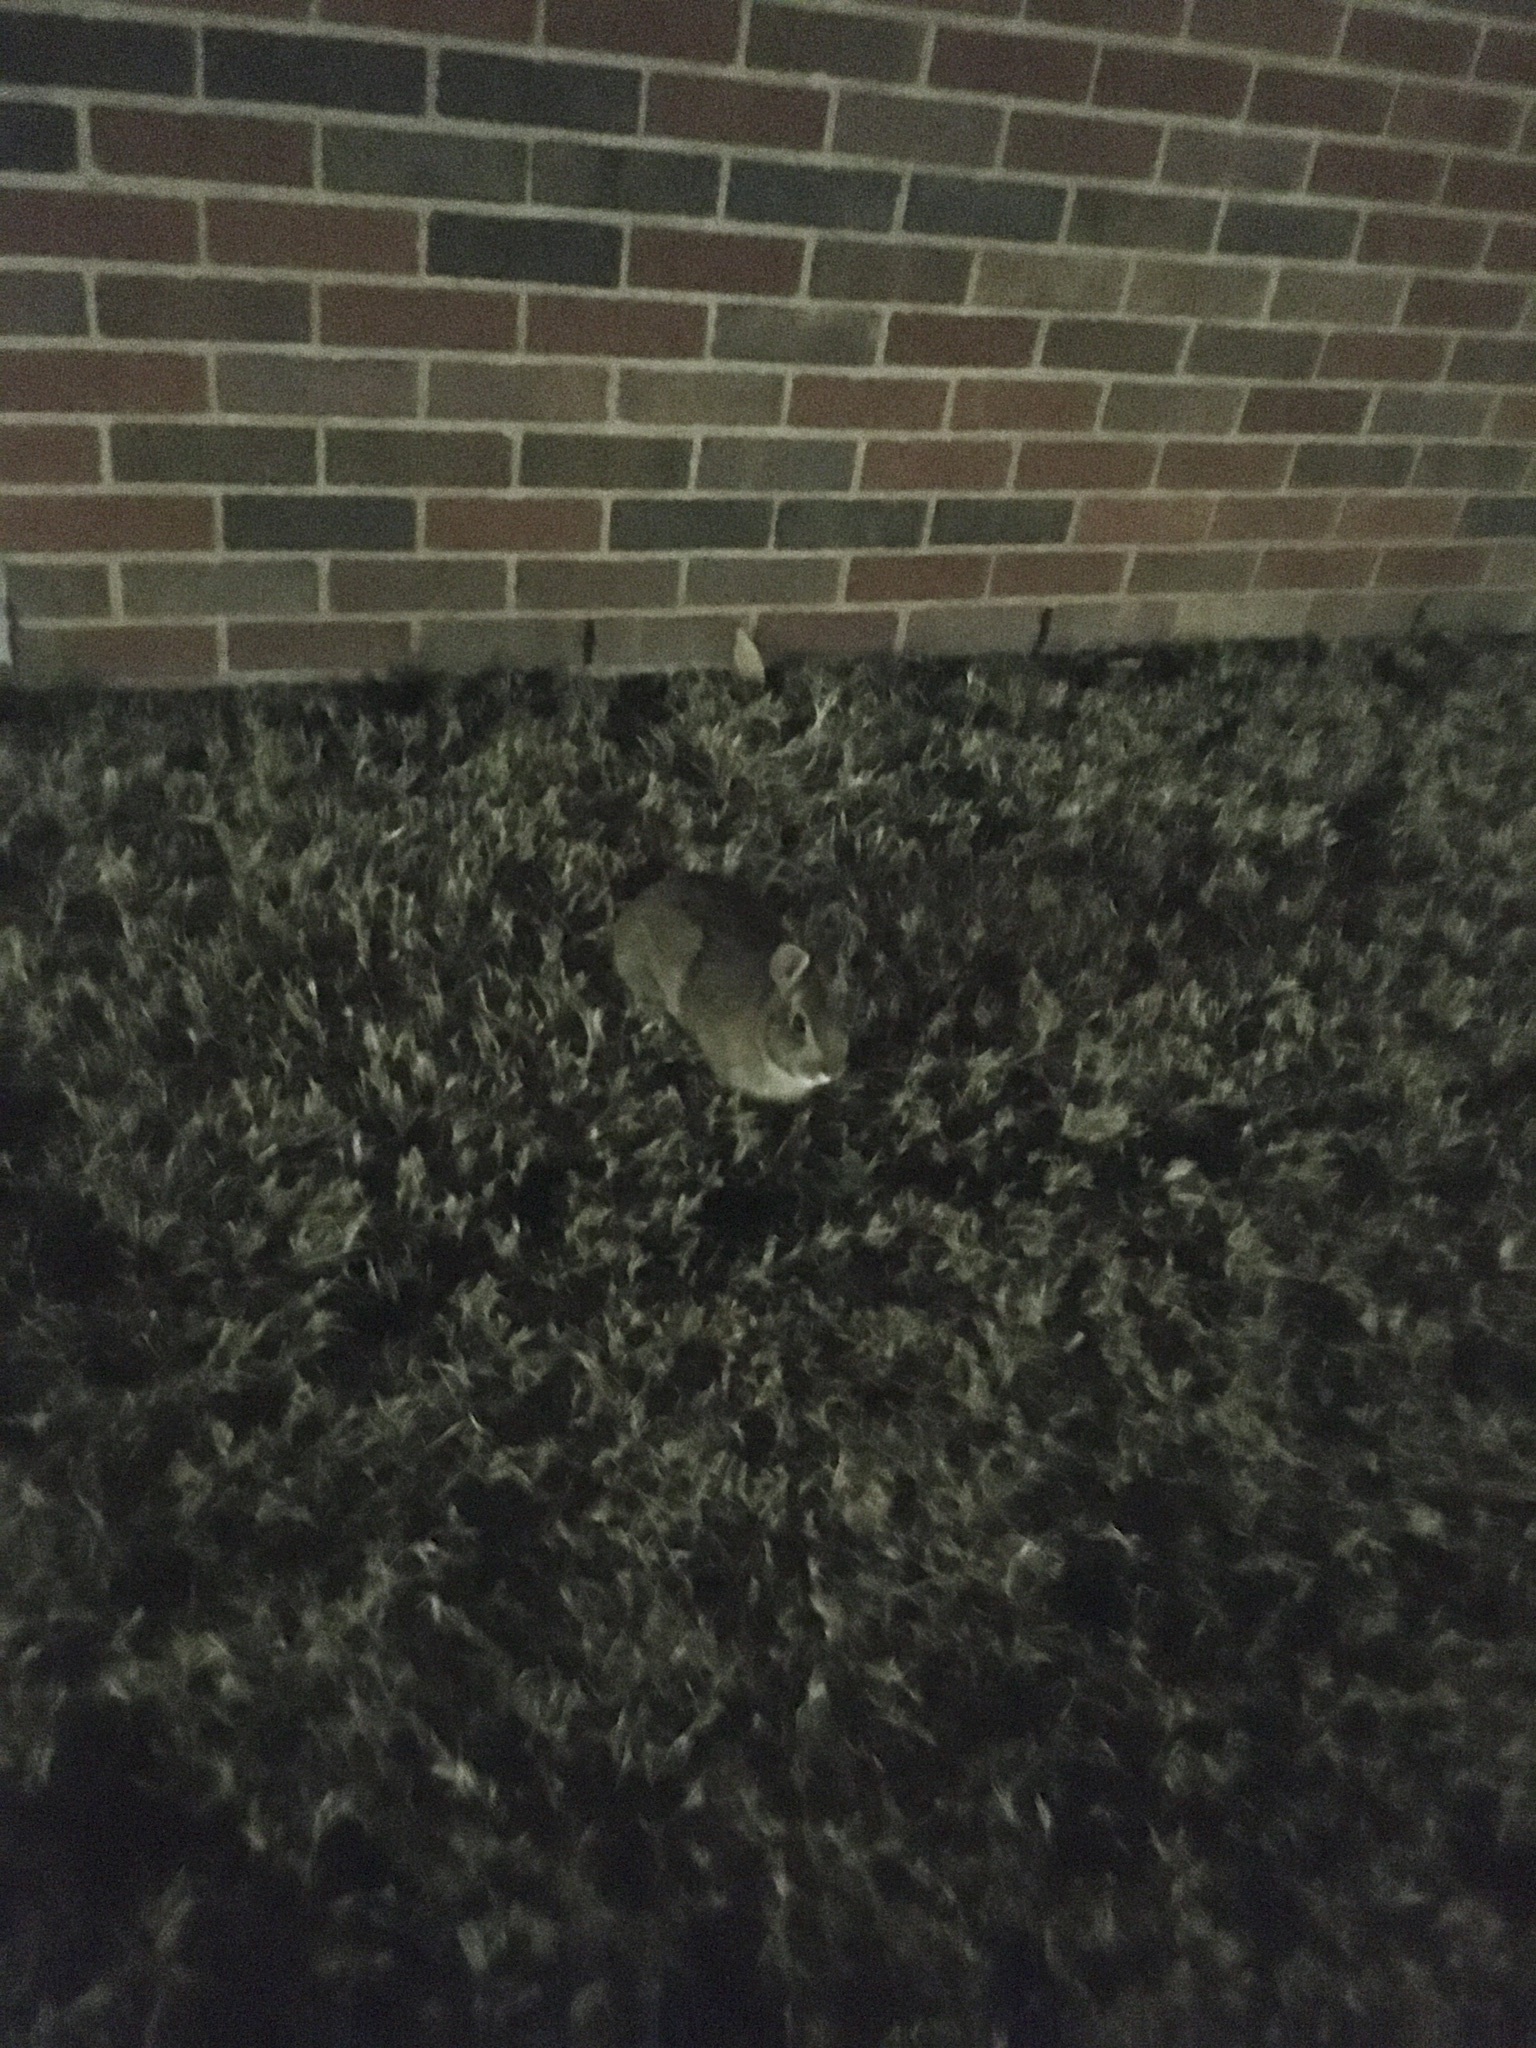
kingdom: Animalia
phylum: Chordata
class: Mammalia
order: Lagomorpha
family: Leporidae
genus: Sylvilagus
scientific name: Sylvilagus floridanus
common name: Eastern cottontail
